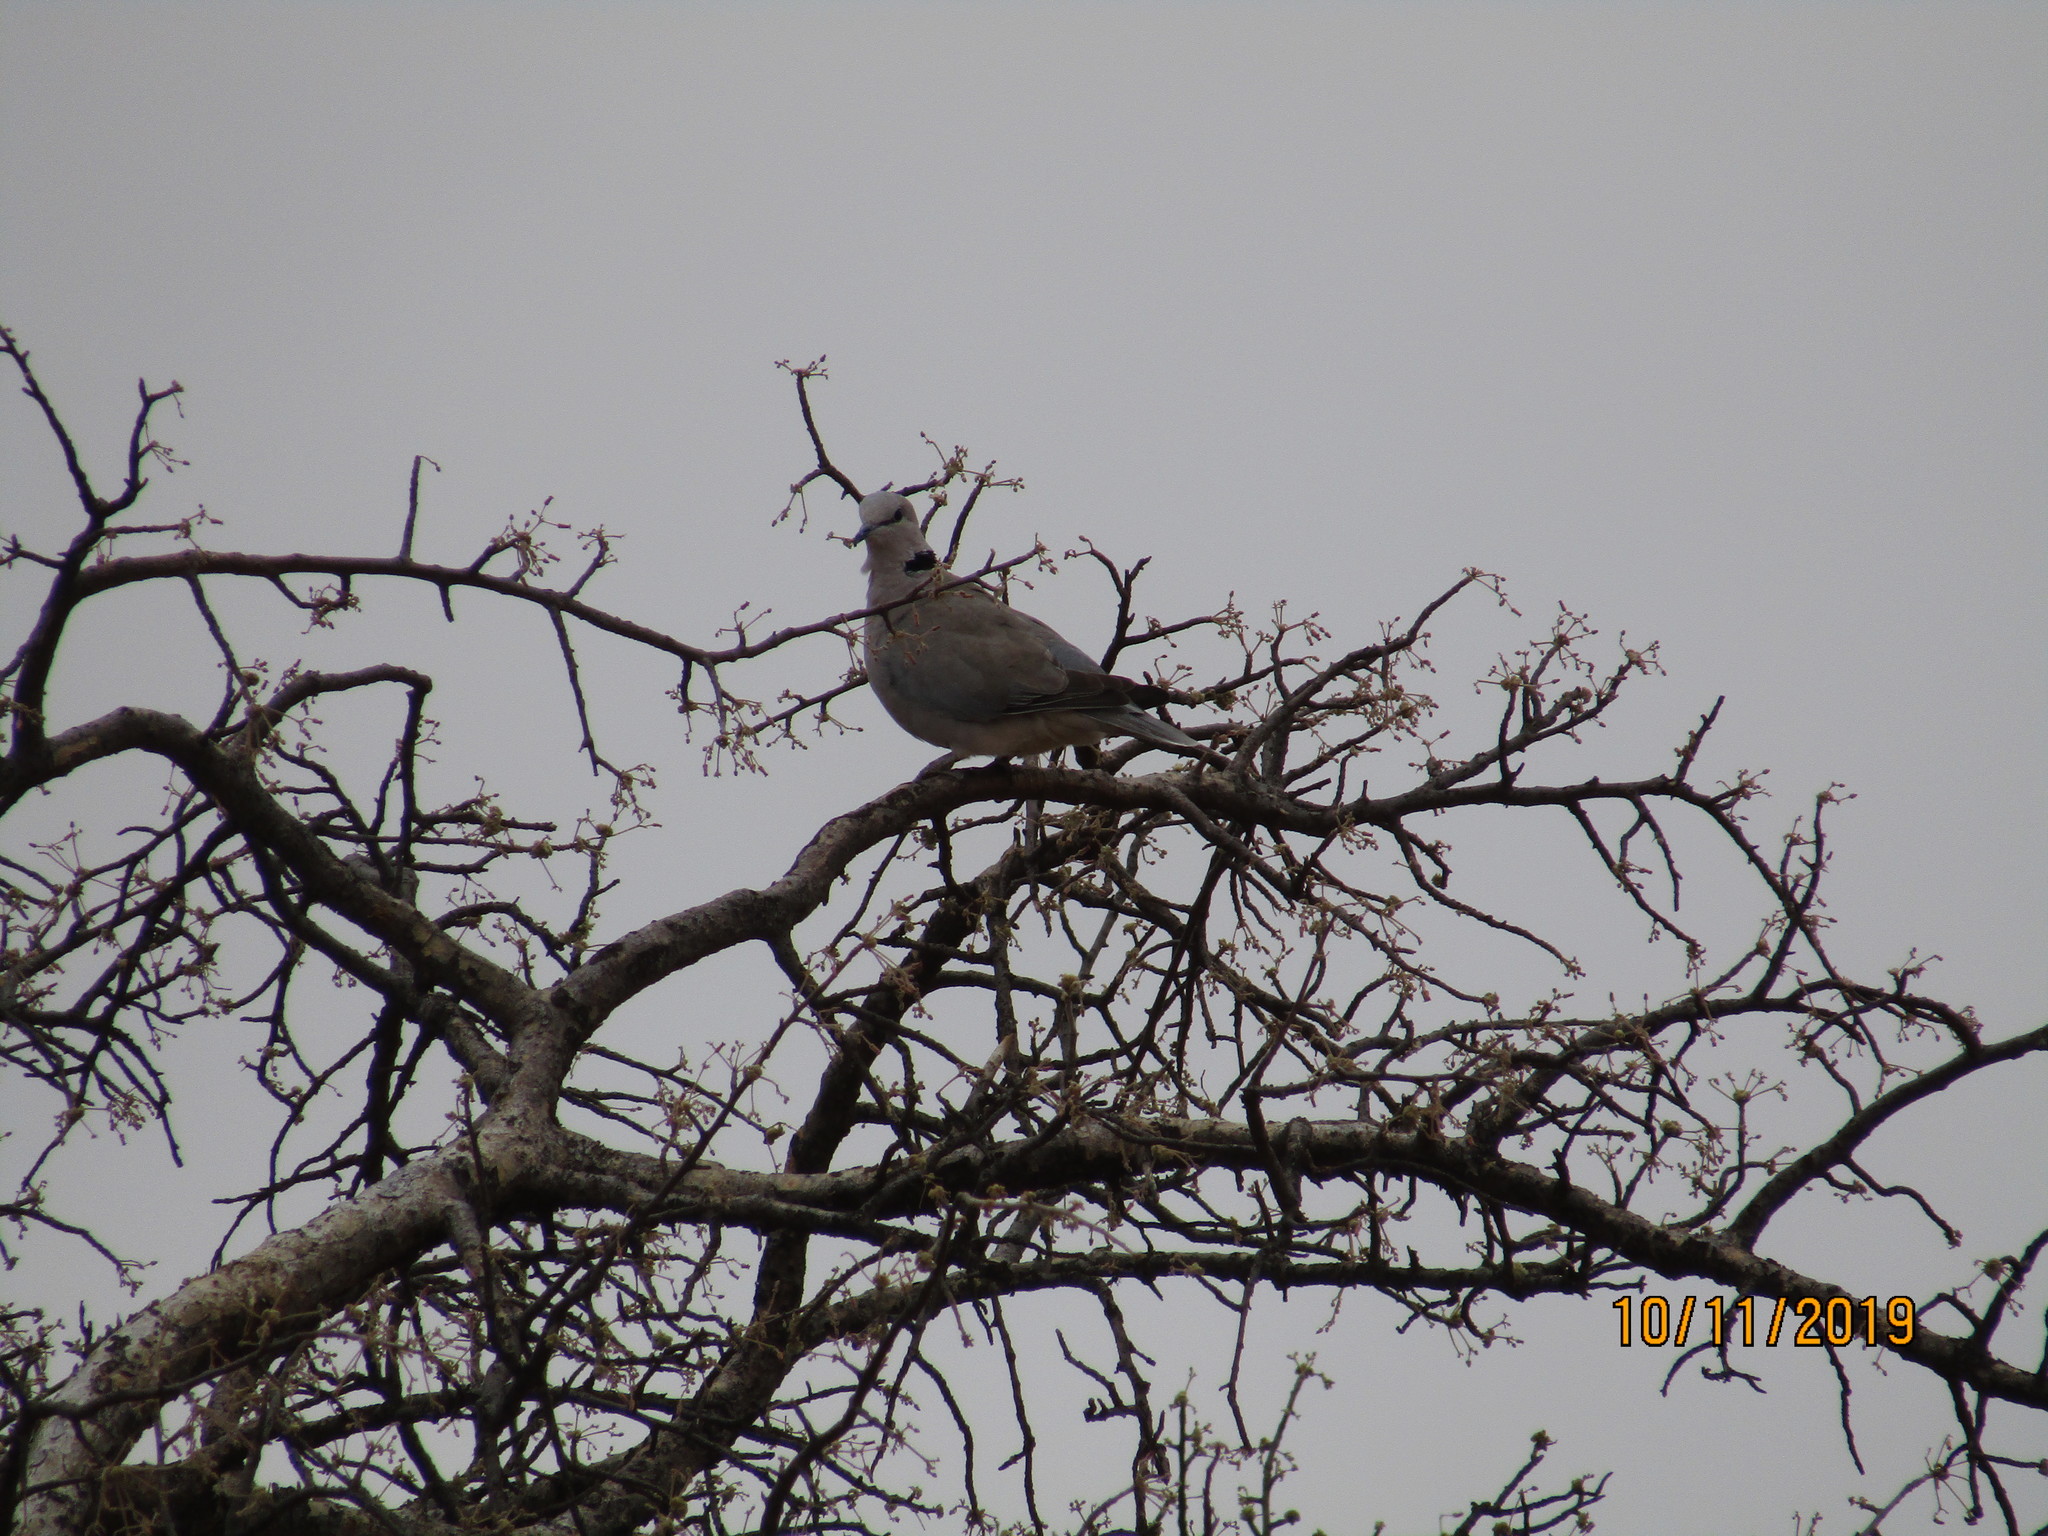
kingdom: Animalia
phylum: Chordata
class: Aves
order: Columbiformes
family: Columbidae
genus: Streptopelia
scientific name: Streptopelia capicola
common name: Ring-necked dove
